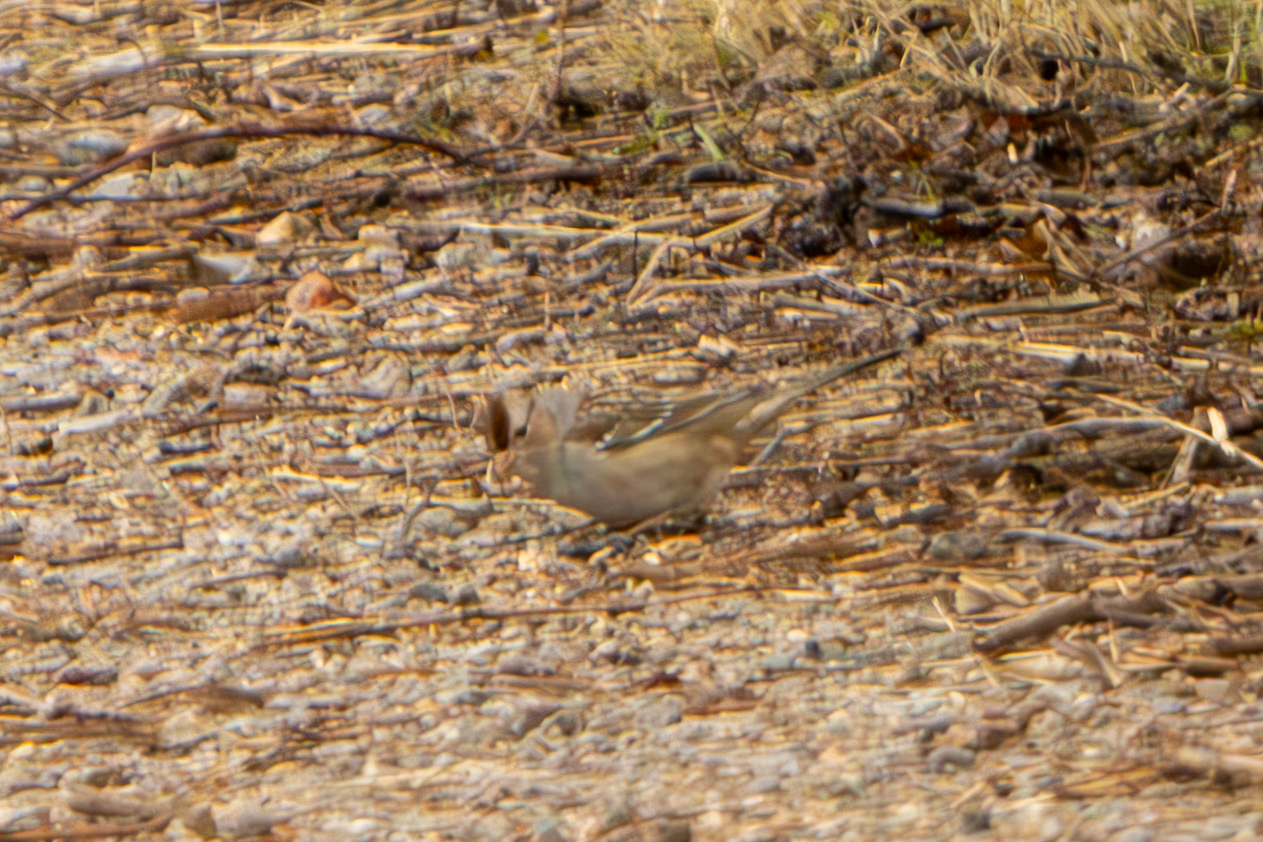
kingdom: Animalia
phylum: Chordata
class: Aves
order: Passeriformes
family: Passerellidae
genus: Zonotrichia
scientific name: Zonotrichia leucophrys
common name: White-crowned sparrow
